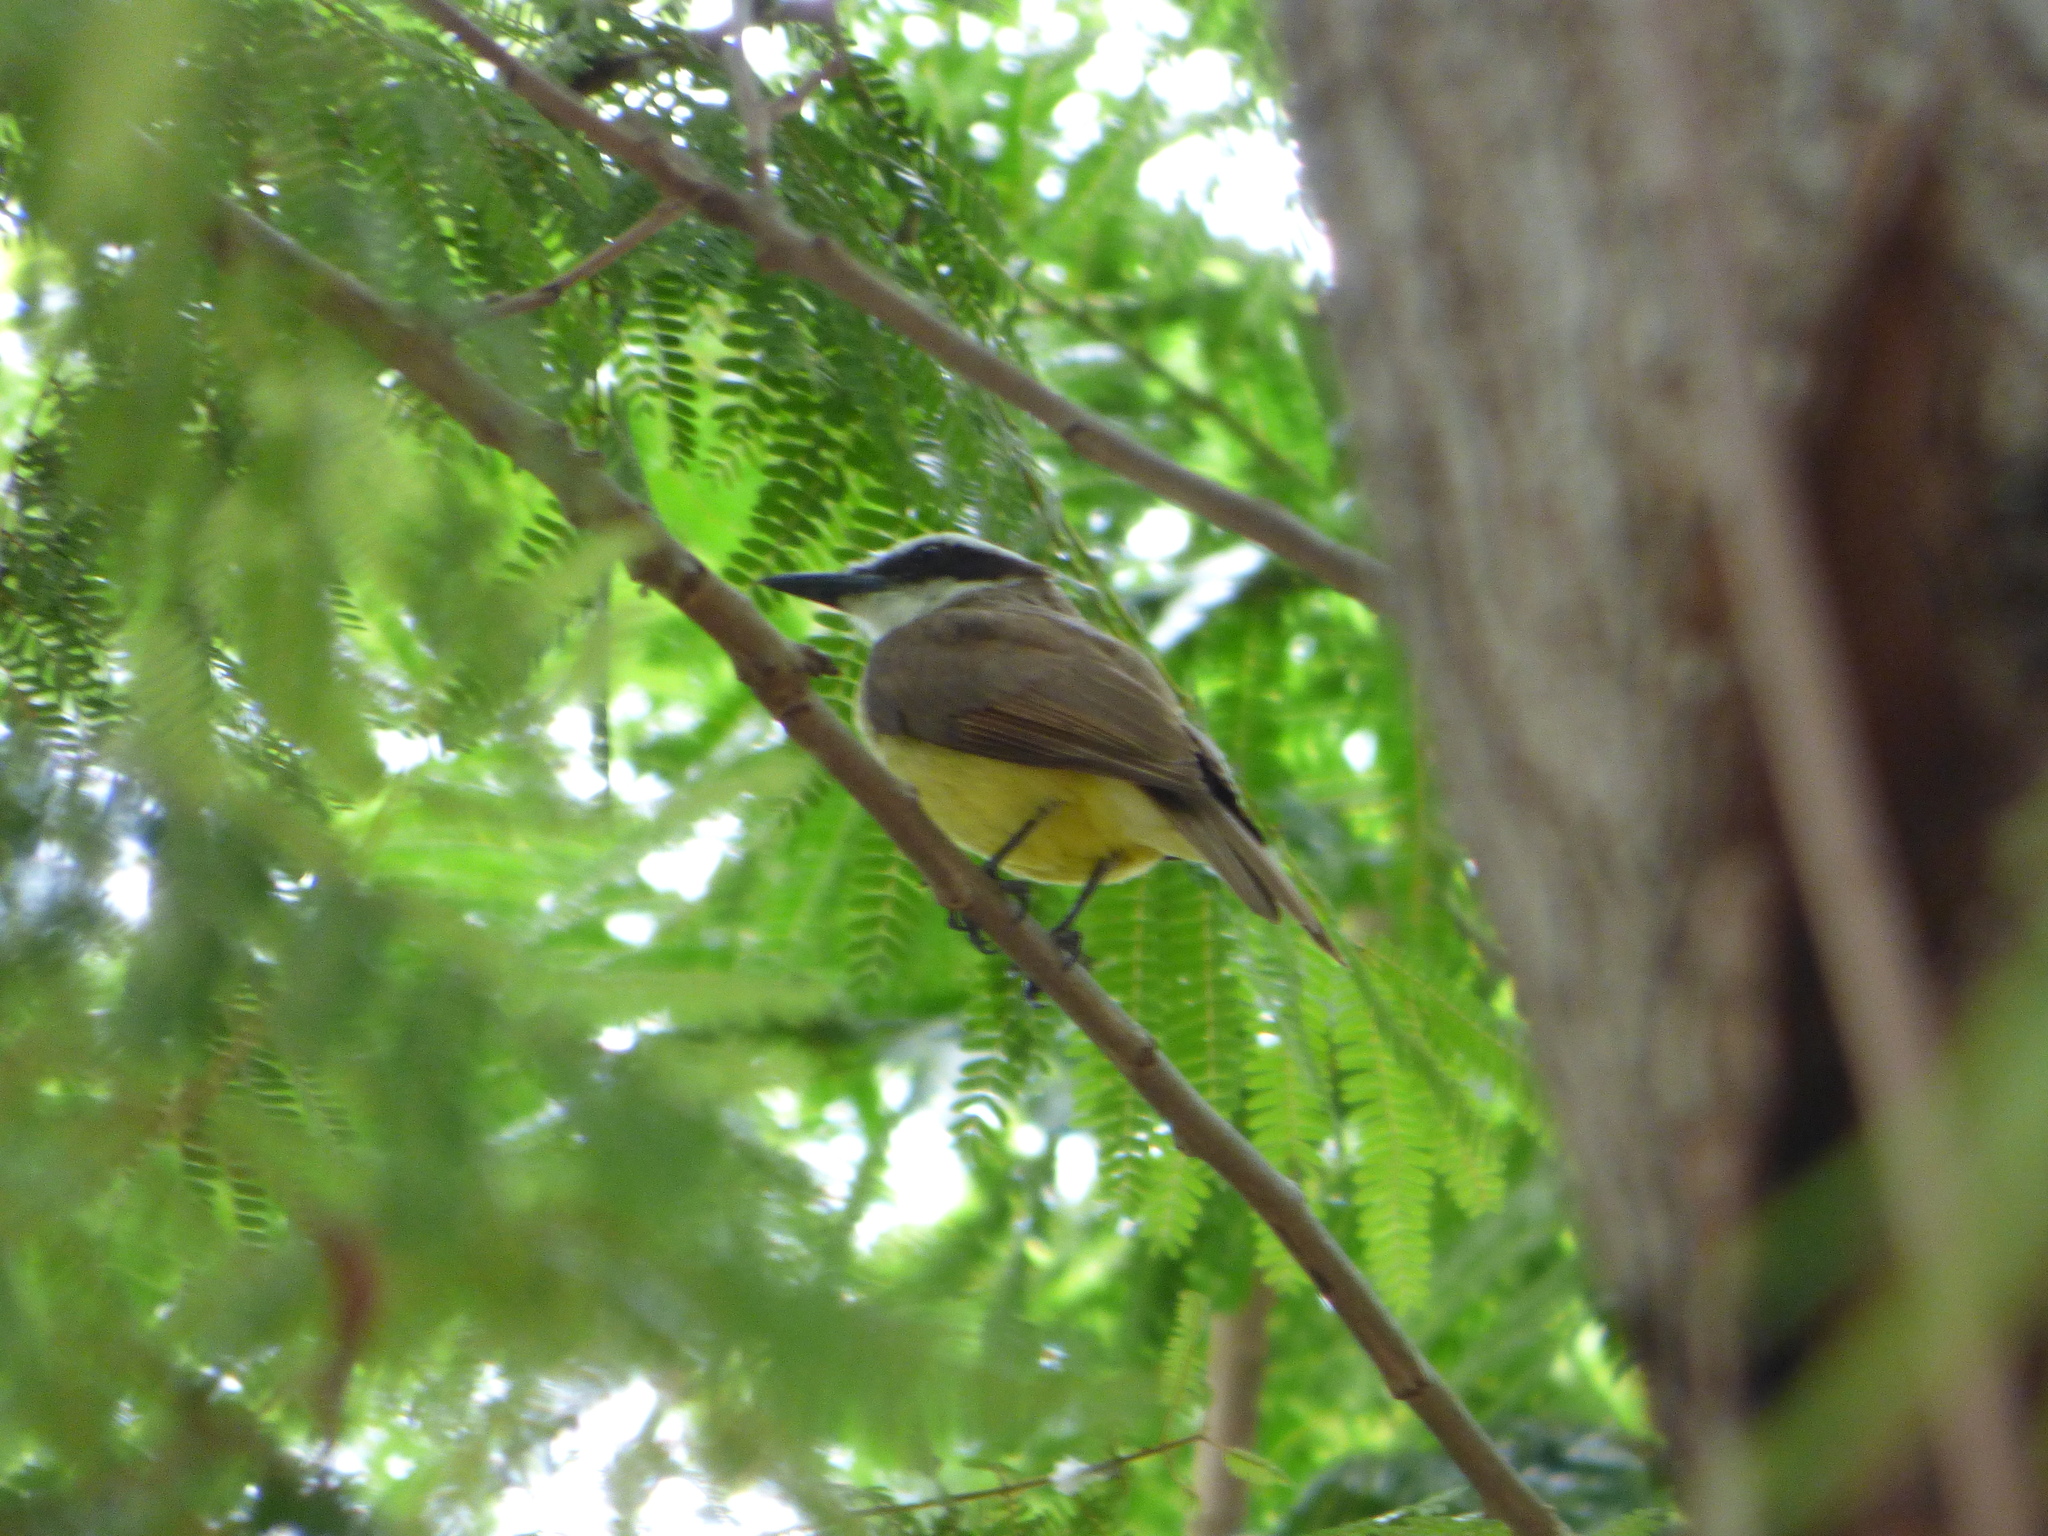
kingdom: Animalia
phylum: Chordata
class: Aves
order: Passeriformes
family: Tyrannidae
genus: Pitangus
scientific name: Pitangus sulphuratus
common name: Great kiskadee
